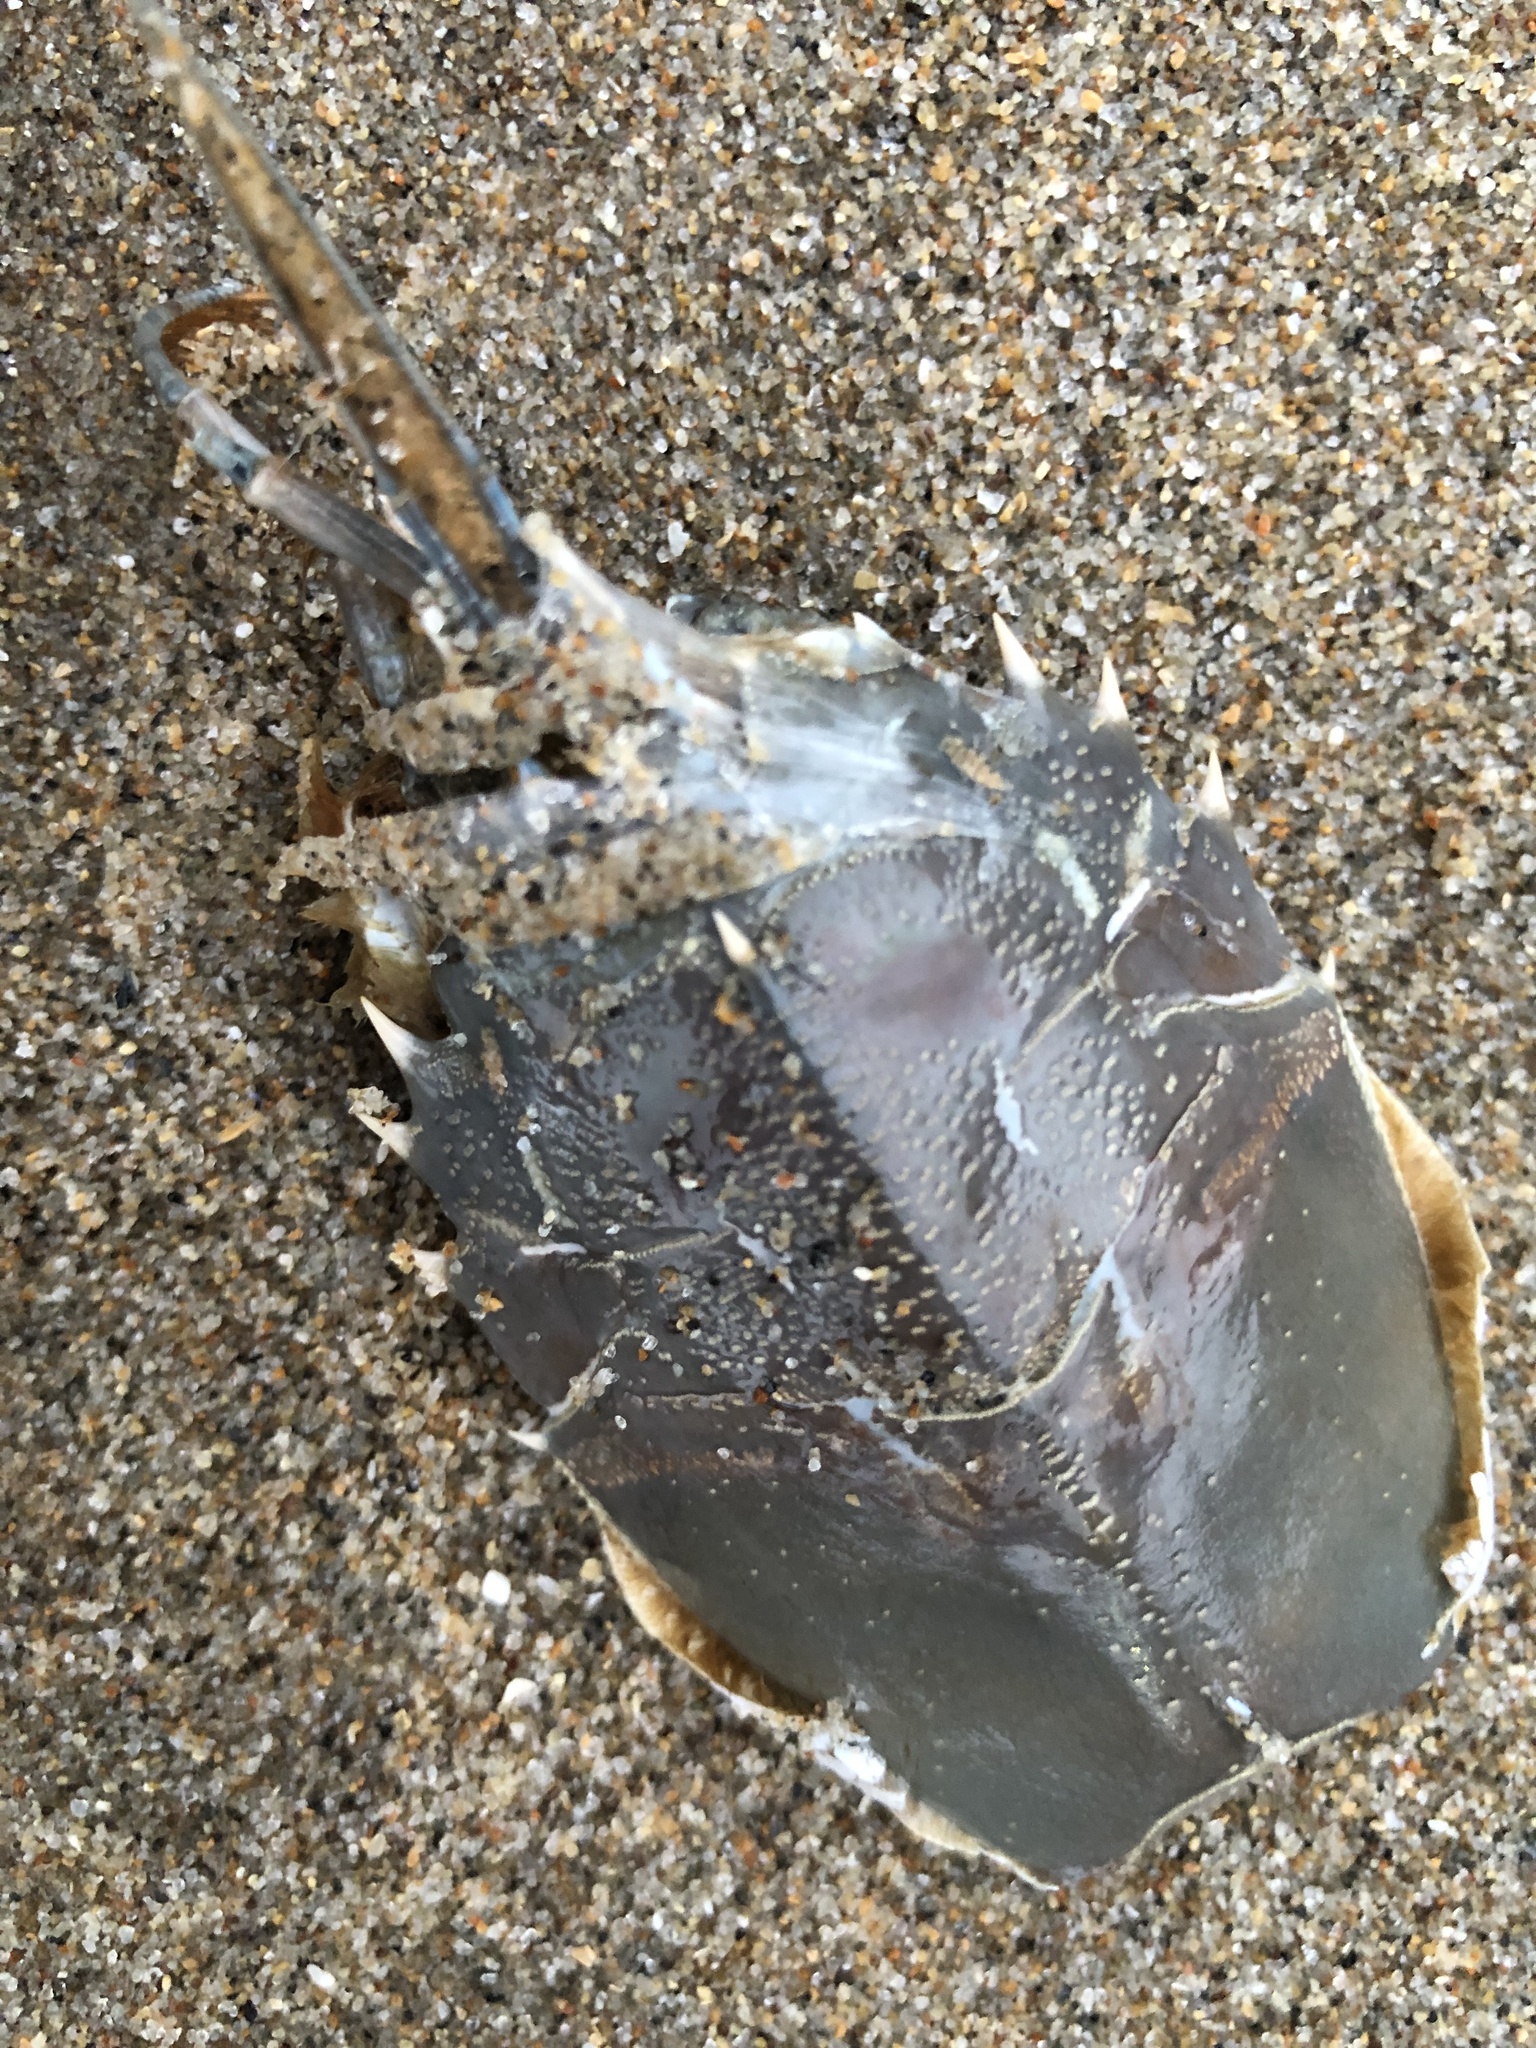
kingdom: Animalia
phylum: Arthropoda
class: Malacostraca
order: Decapoda
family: Blepharipodidae
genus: Blepharipoda
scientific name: Blepharipoda occidentalis
